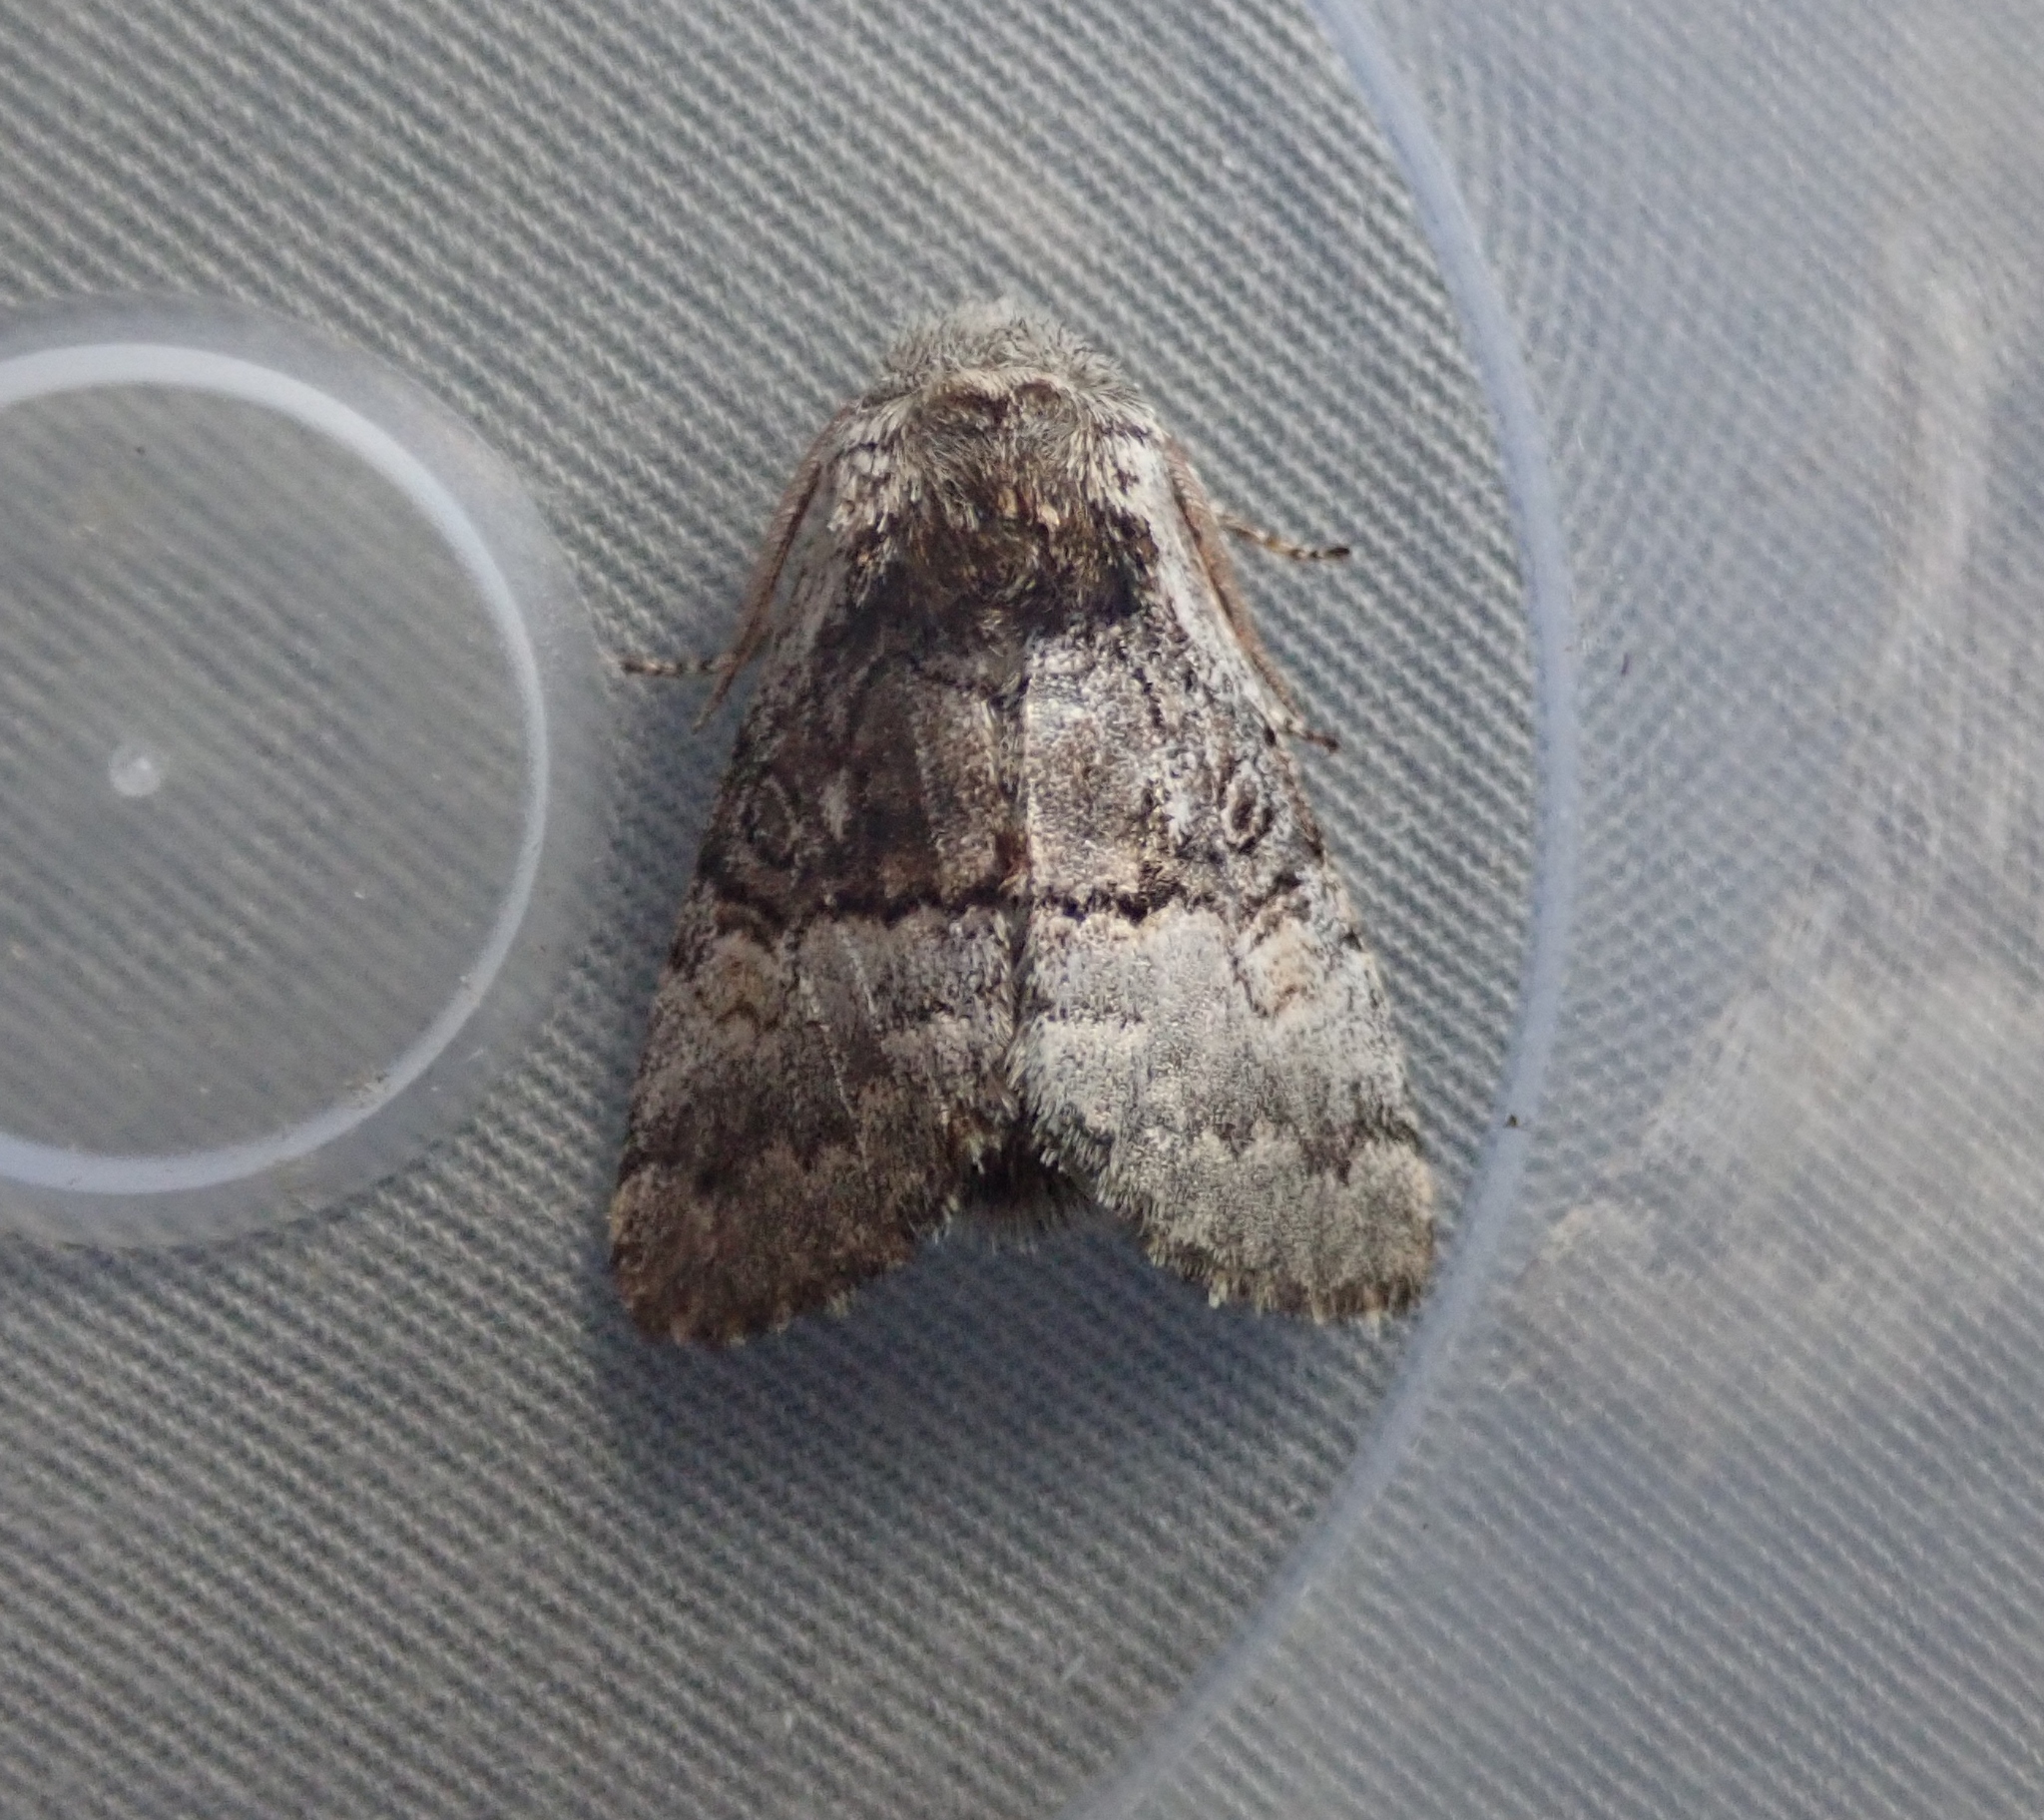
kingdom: Animalia
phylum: Arthropoda
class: Insecta
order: Lepidoptera
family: Noctuidae
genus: Colocasia
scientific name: Colocasia coryli
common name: Nut-tree tussock
